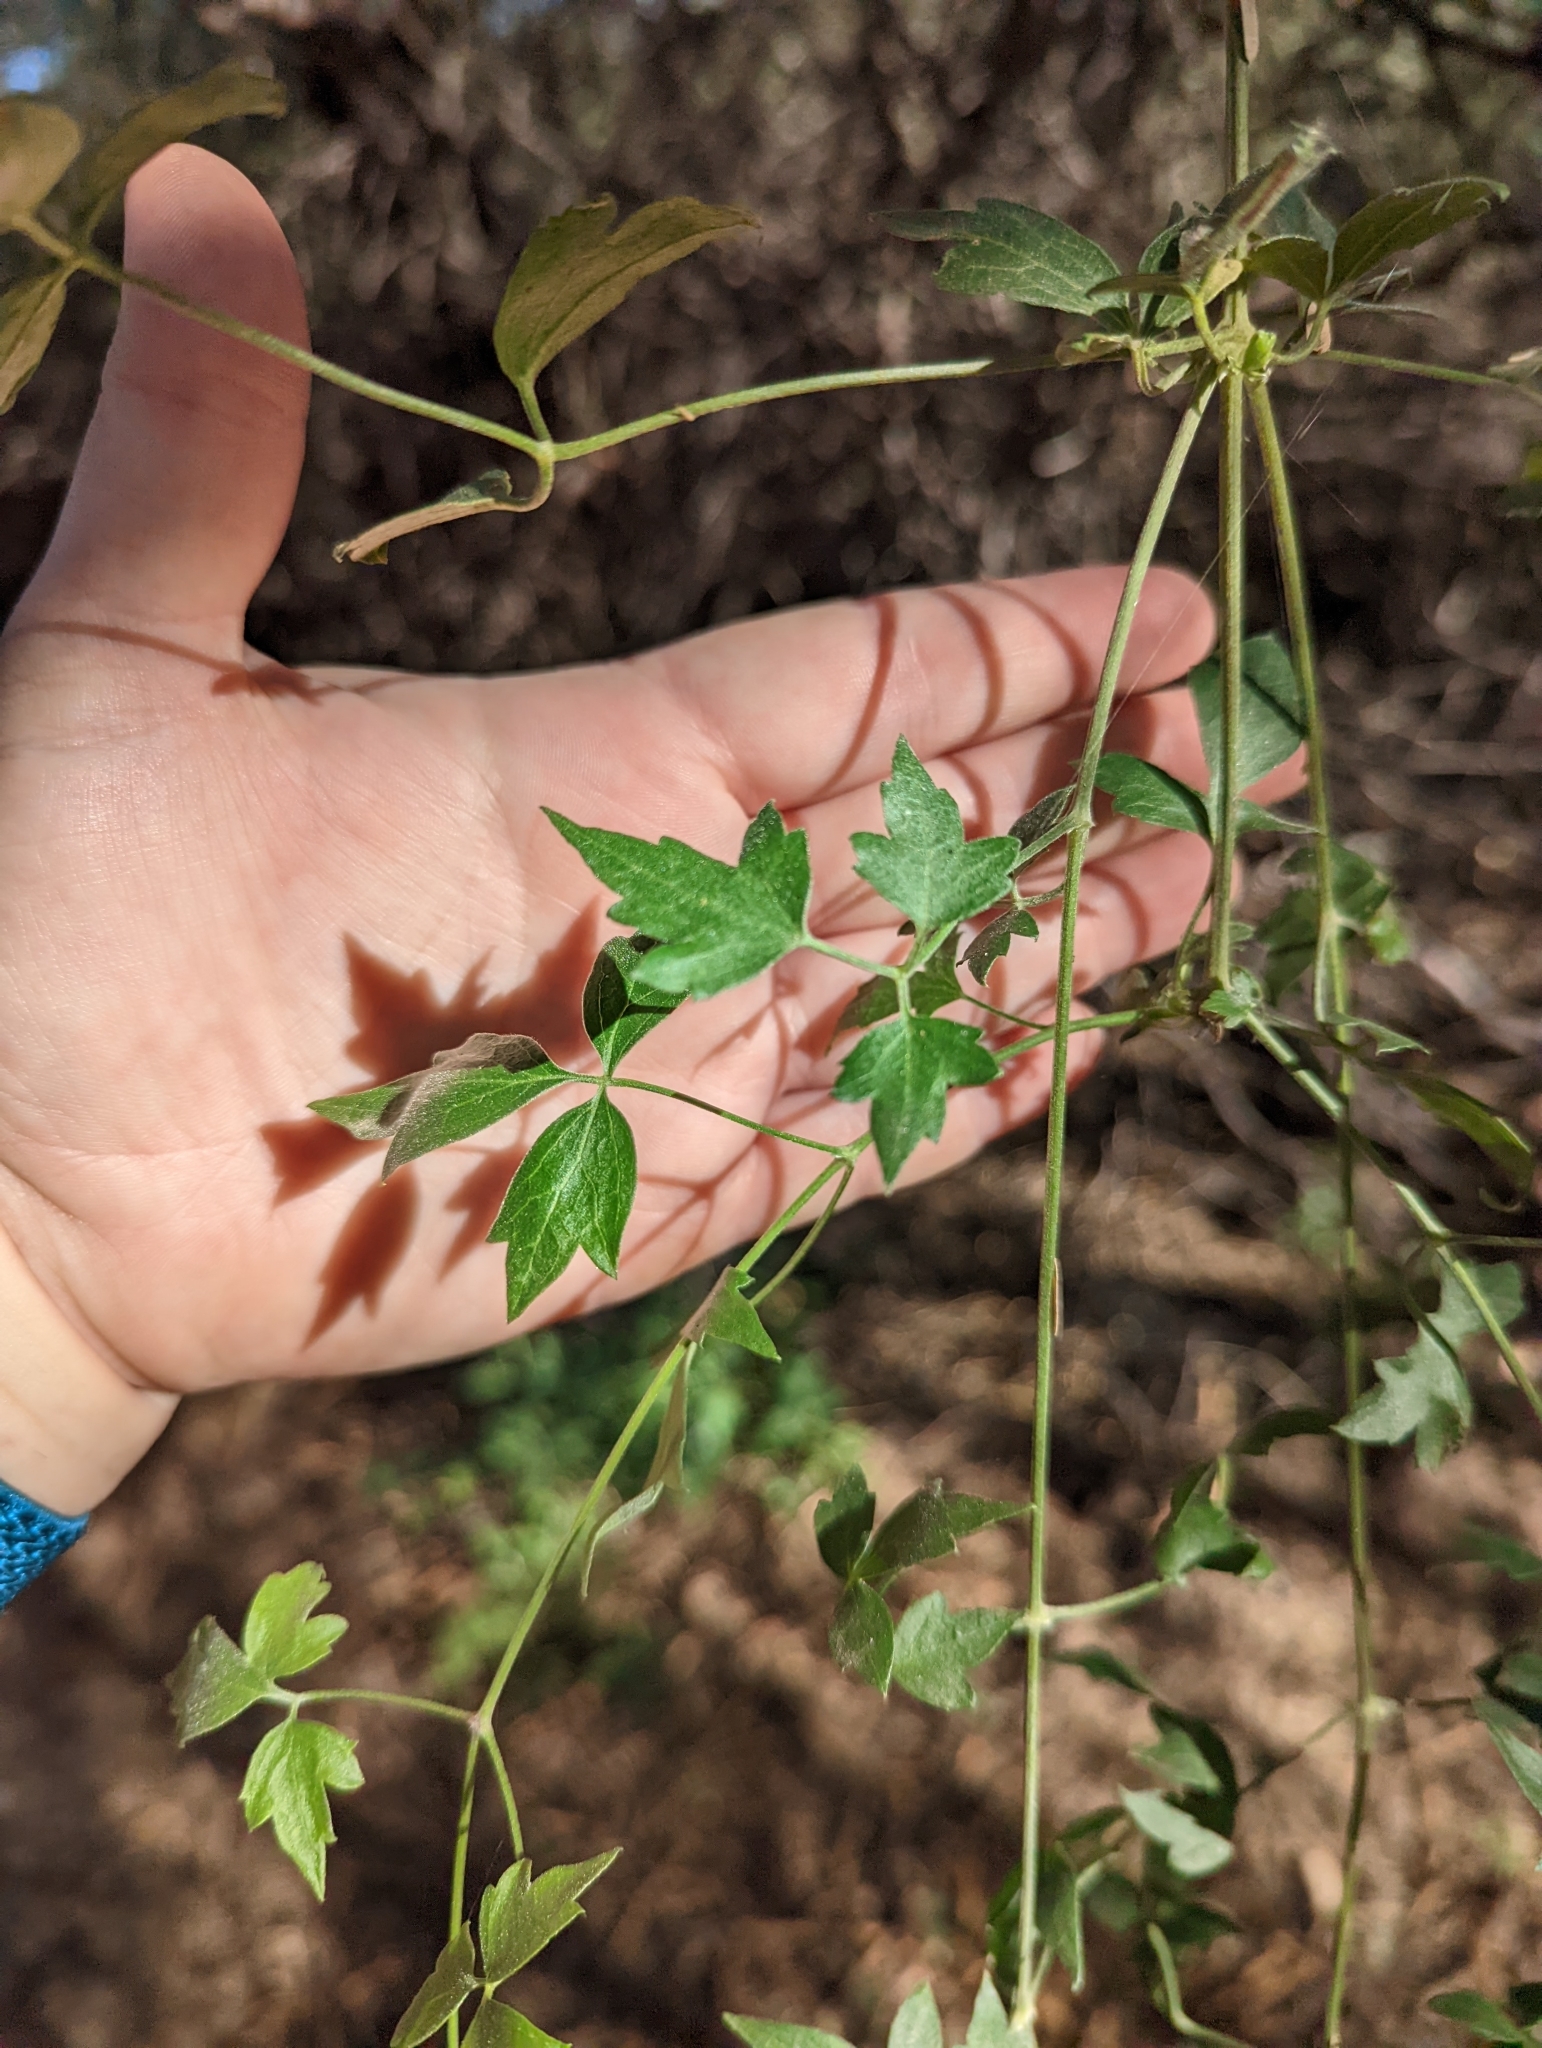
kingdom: Plantae
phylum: Tracheophyta
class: Magnoliopsida
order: Ranunculales
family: Ranunculaceae
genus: Clematis
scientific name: Clematis drummondii
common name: Texas virgin's bower
